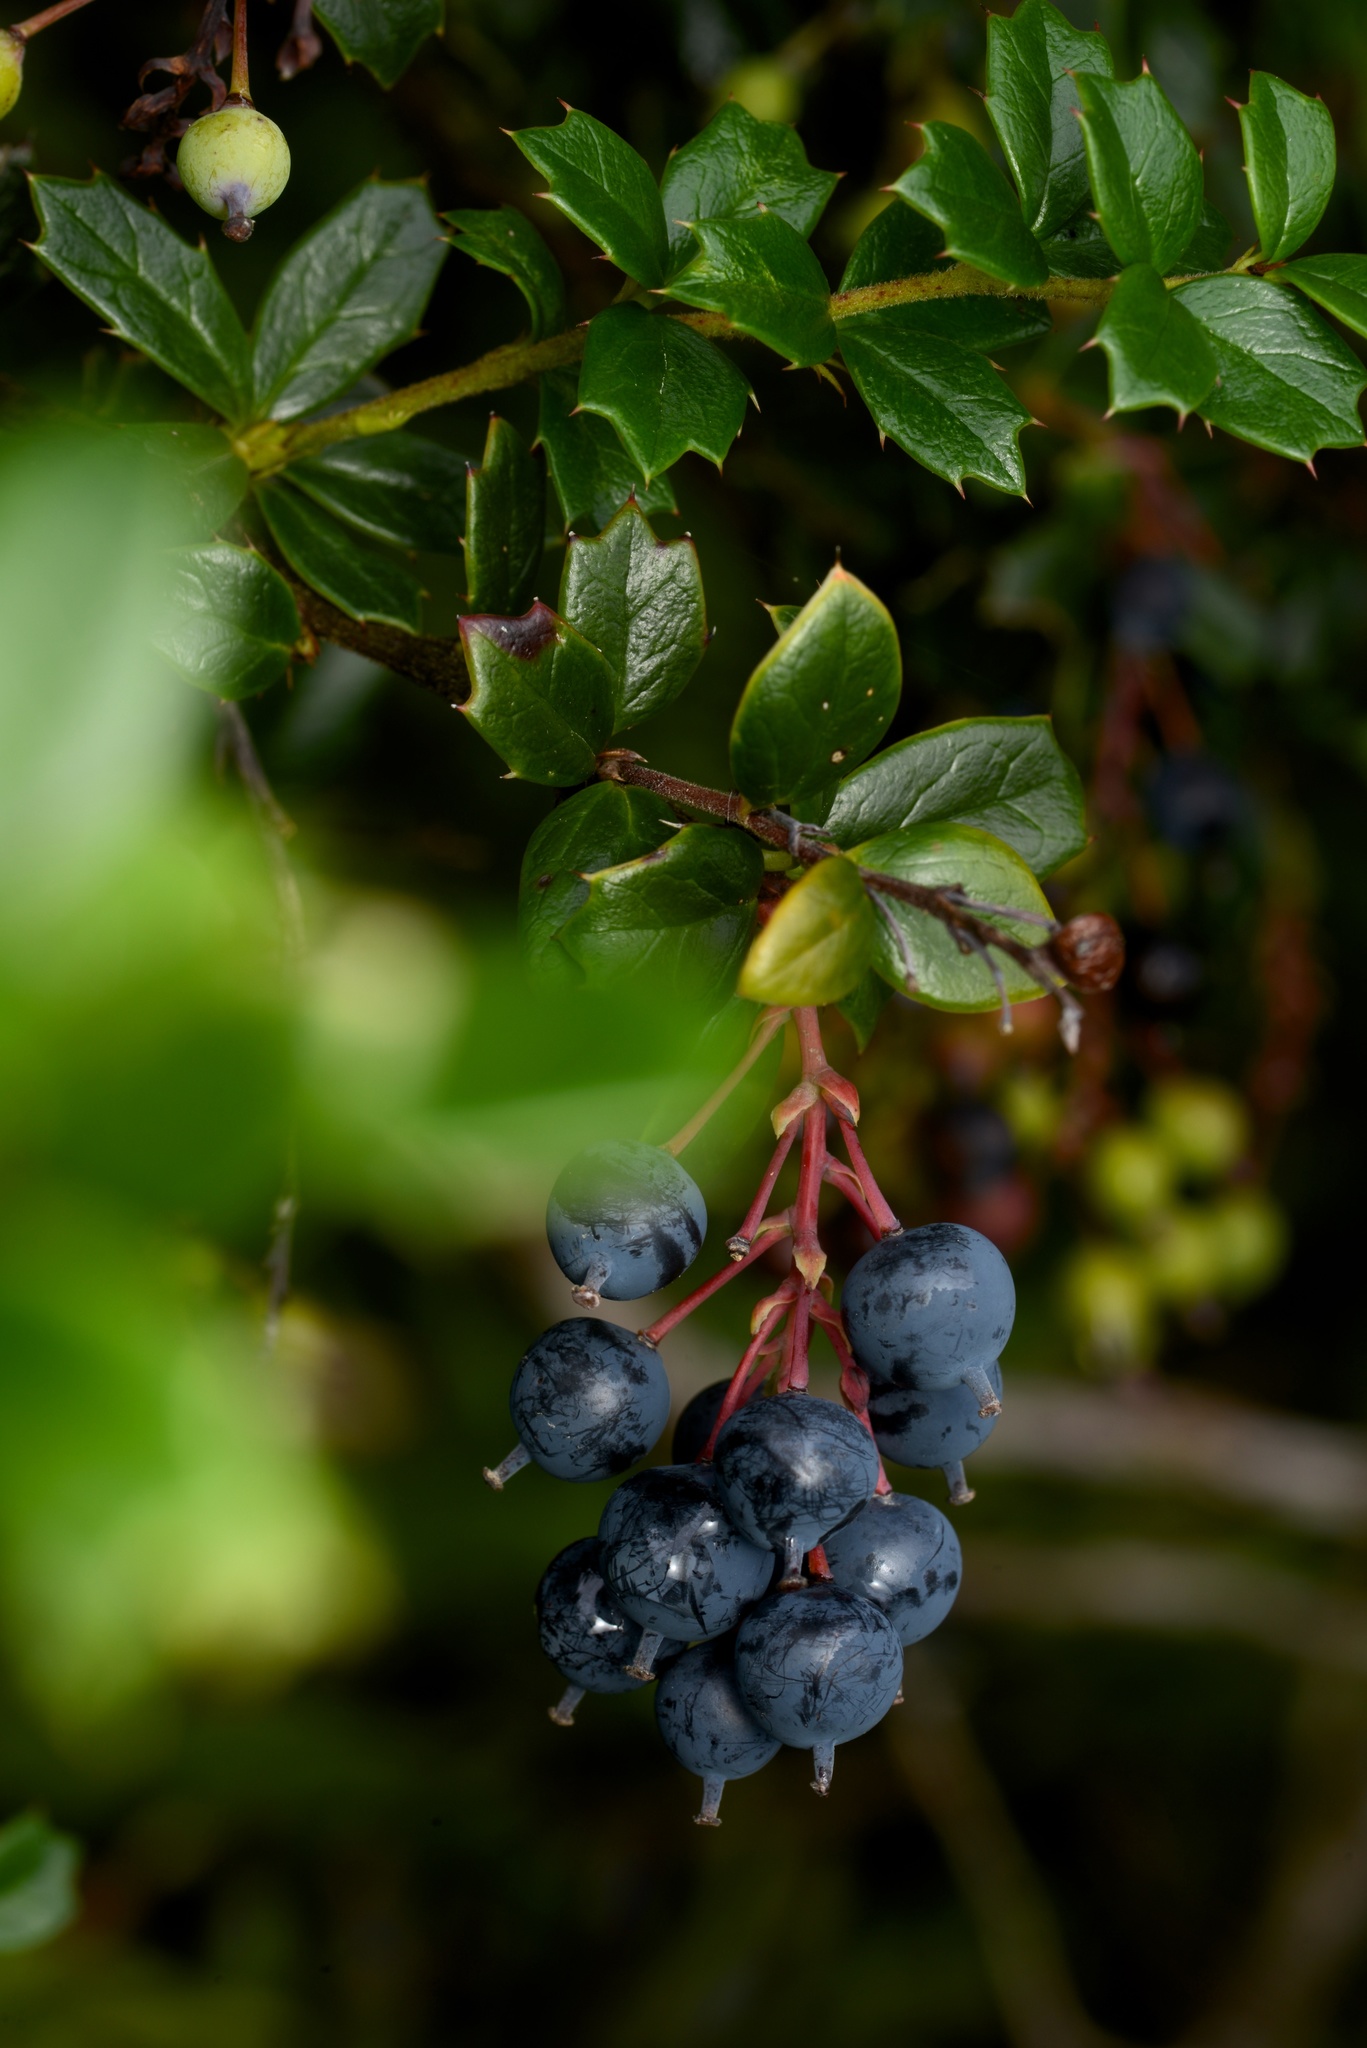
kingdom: Plantae
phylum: Tracheophyta
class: Magnoliopsida
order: Ranunculales
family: Berberidaceae
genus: Berberis
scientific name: Berberis darwinii
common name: Darwin's barberry
